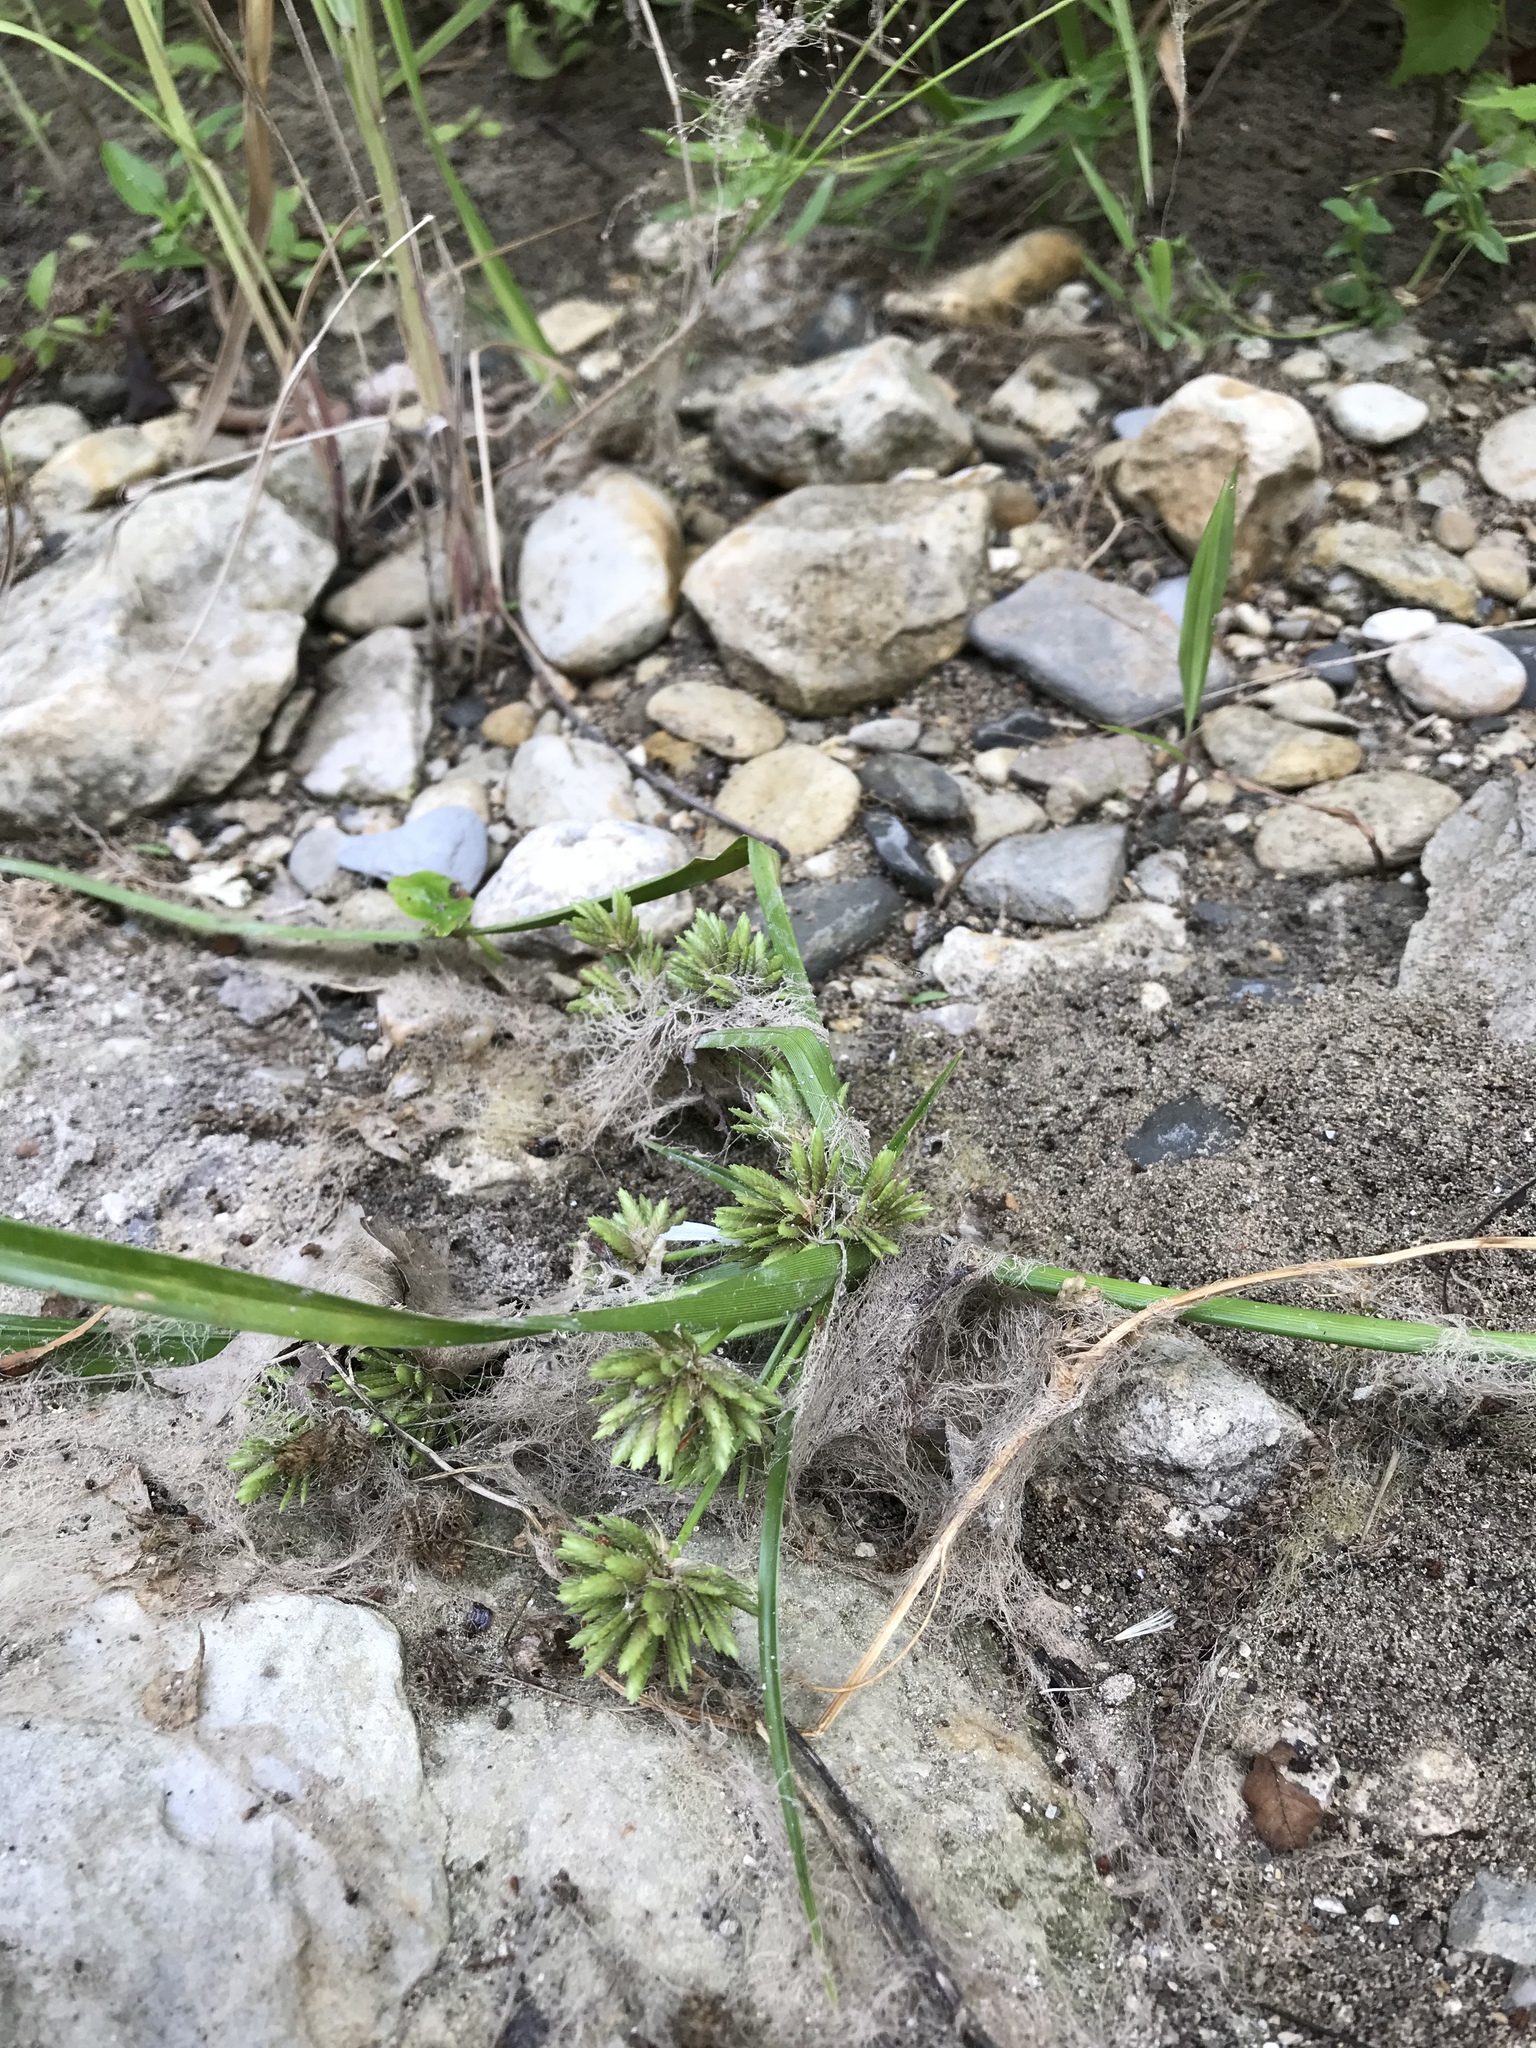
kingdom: Plantae
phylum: Tracheophyta
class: Liliopsida
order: Poales
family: Cyperaceae
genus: Cyperus
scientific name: Cyperus eragrostis
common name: Tall flatsedge
